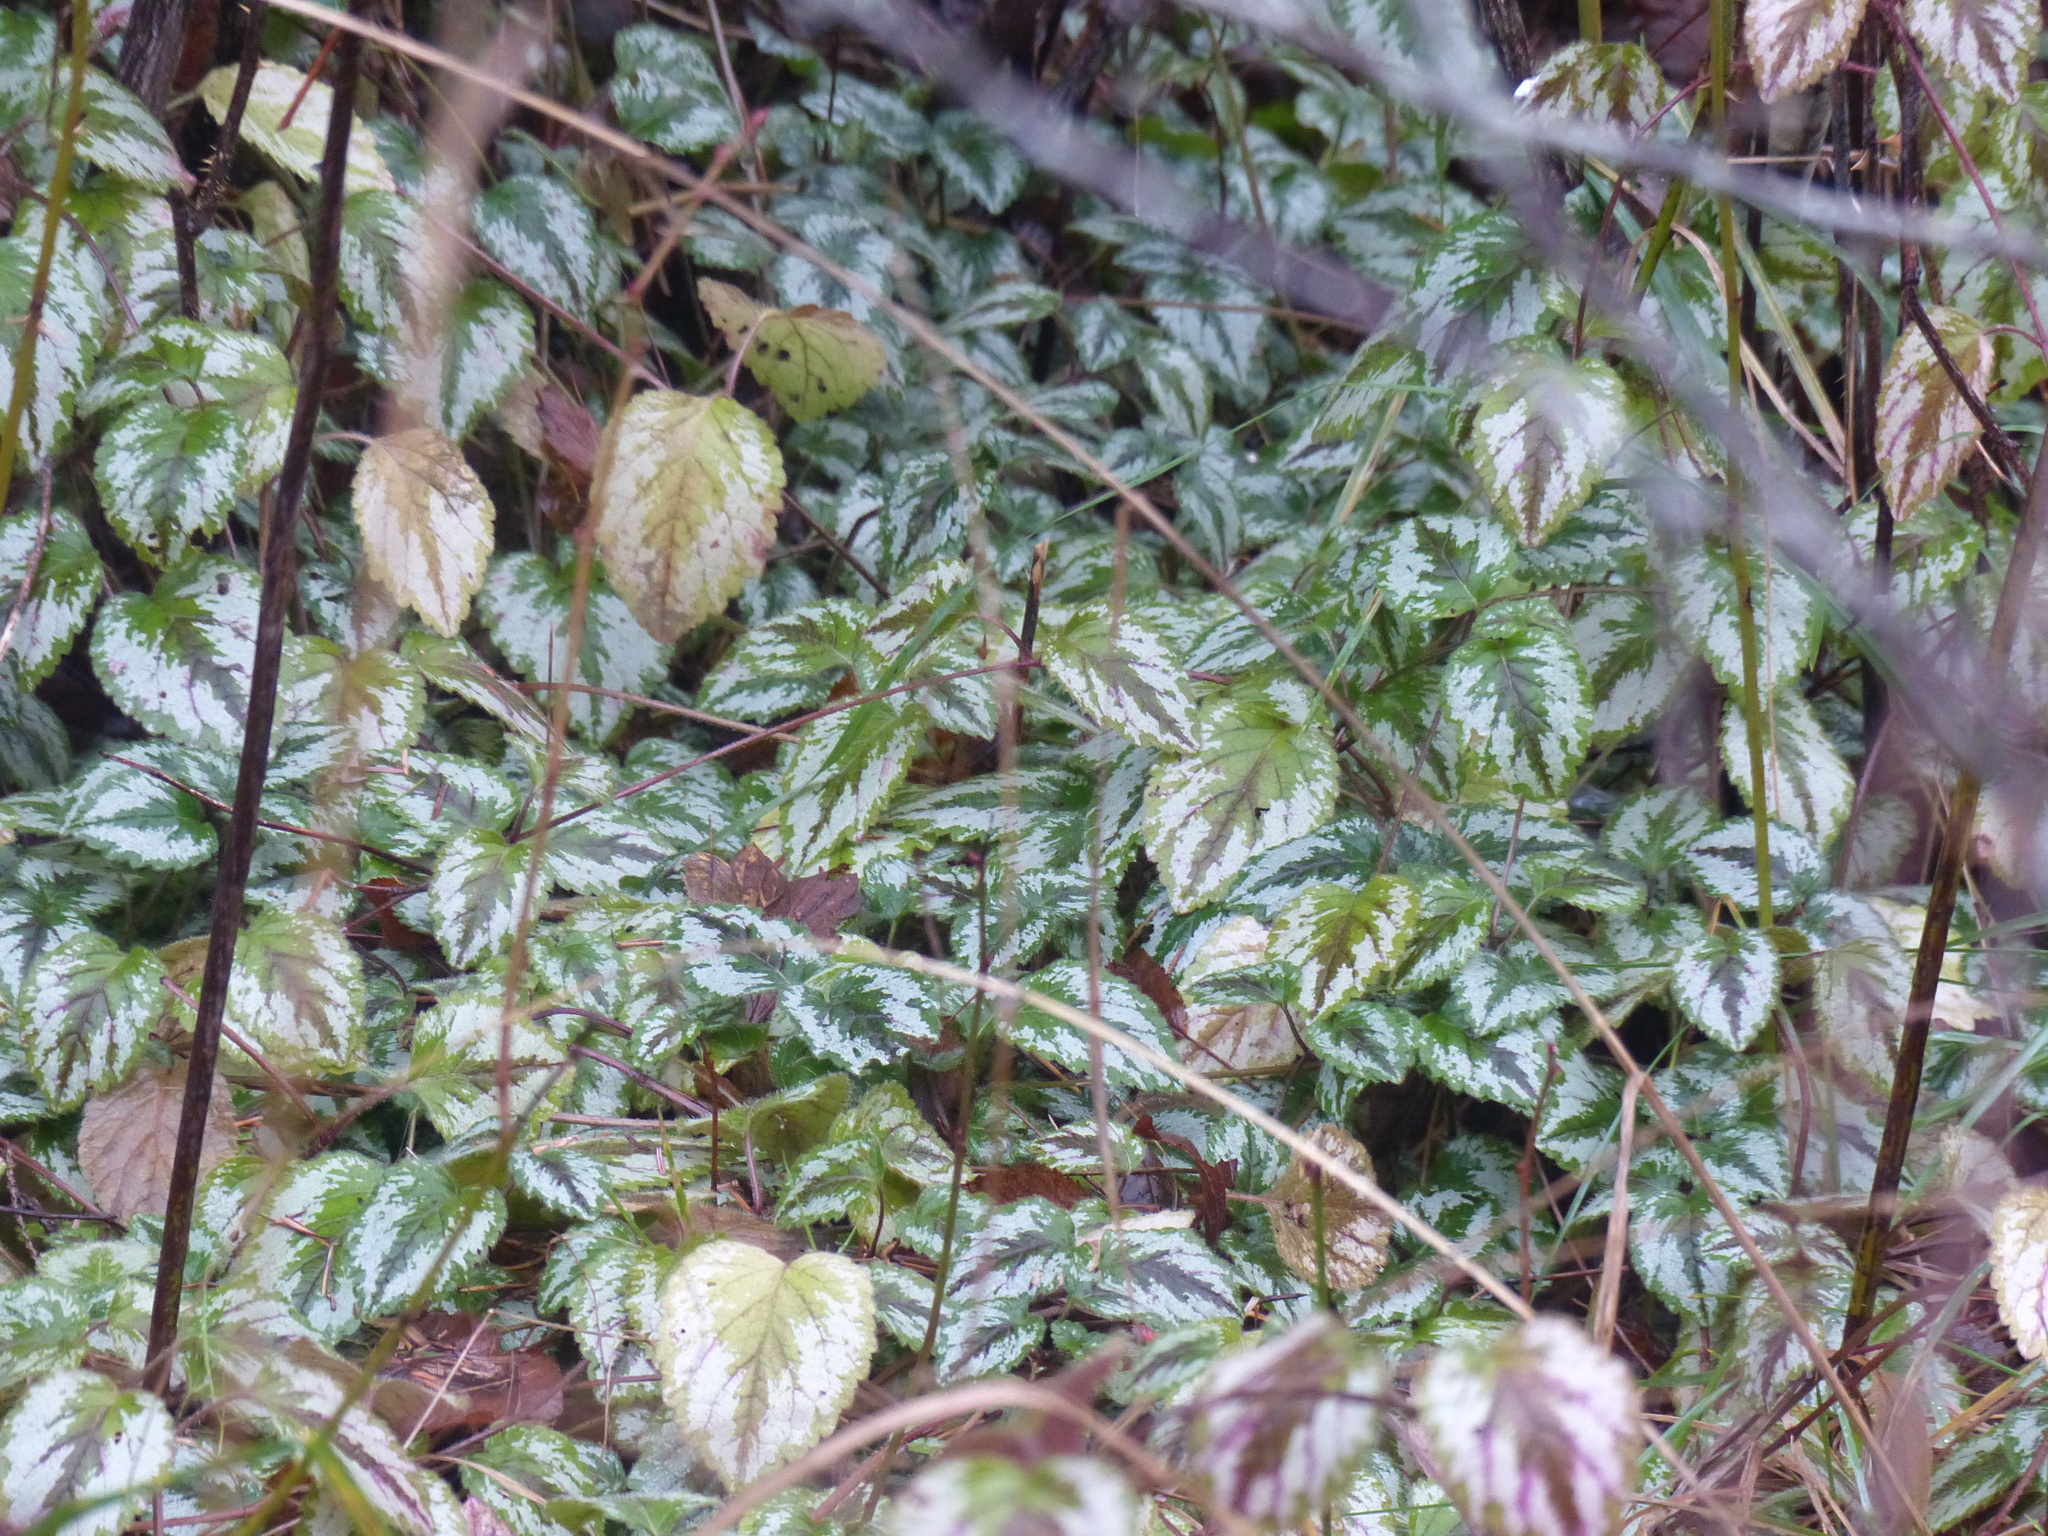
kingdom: Plantae
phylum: Tracheophyta
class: Magnoliopsida
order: Lamiales
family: Lamiaceae
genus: Lamium
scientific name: Lamium galeobdolon
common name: Yellow archangel
